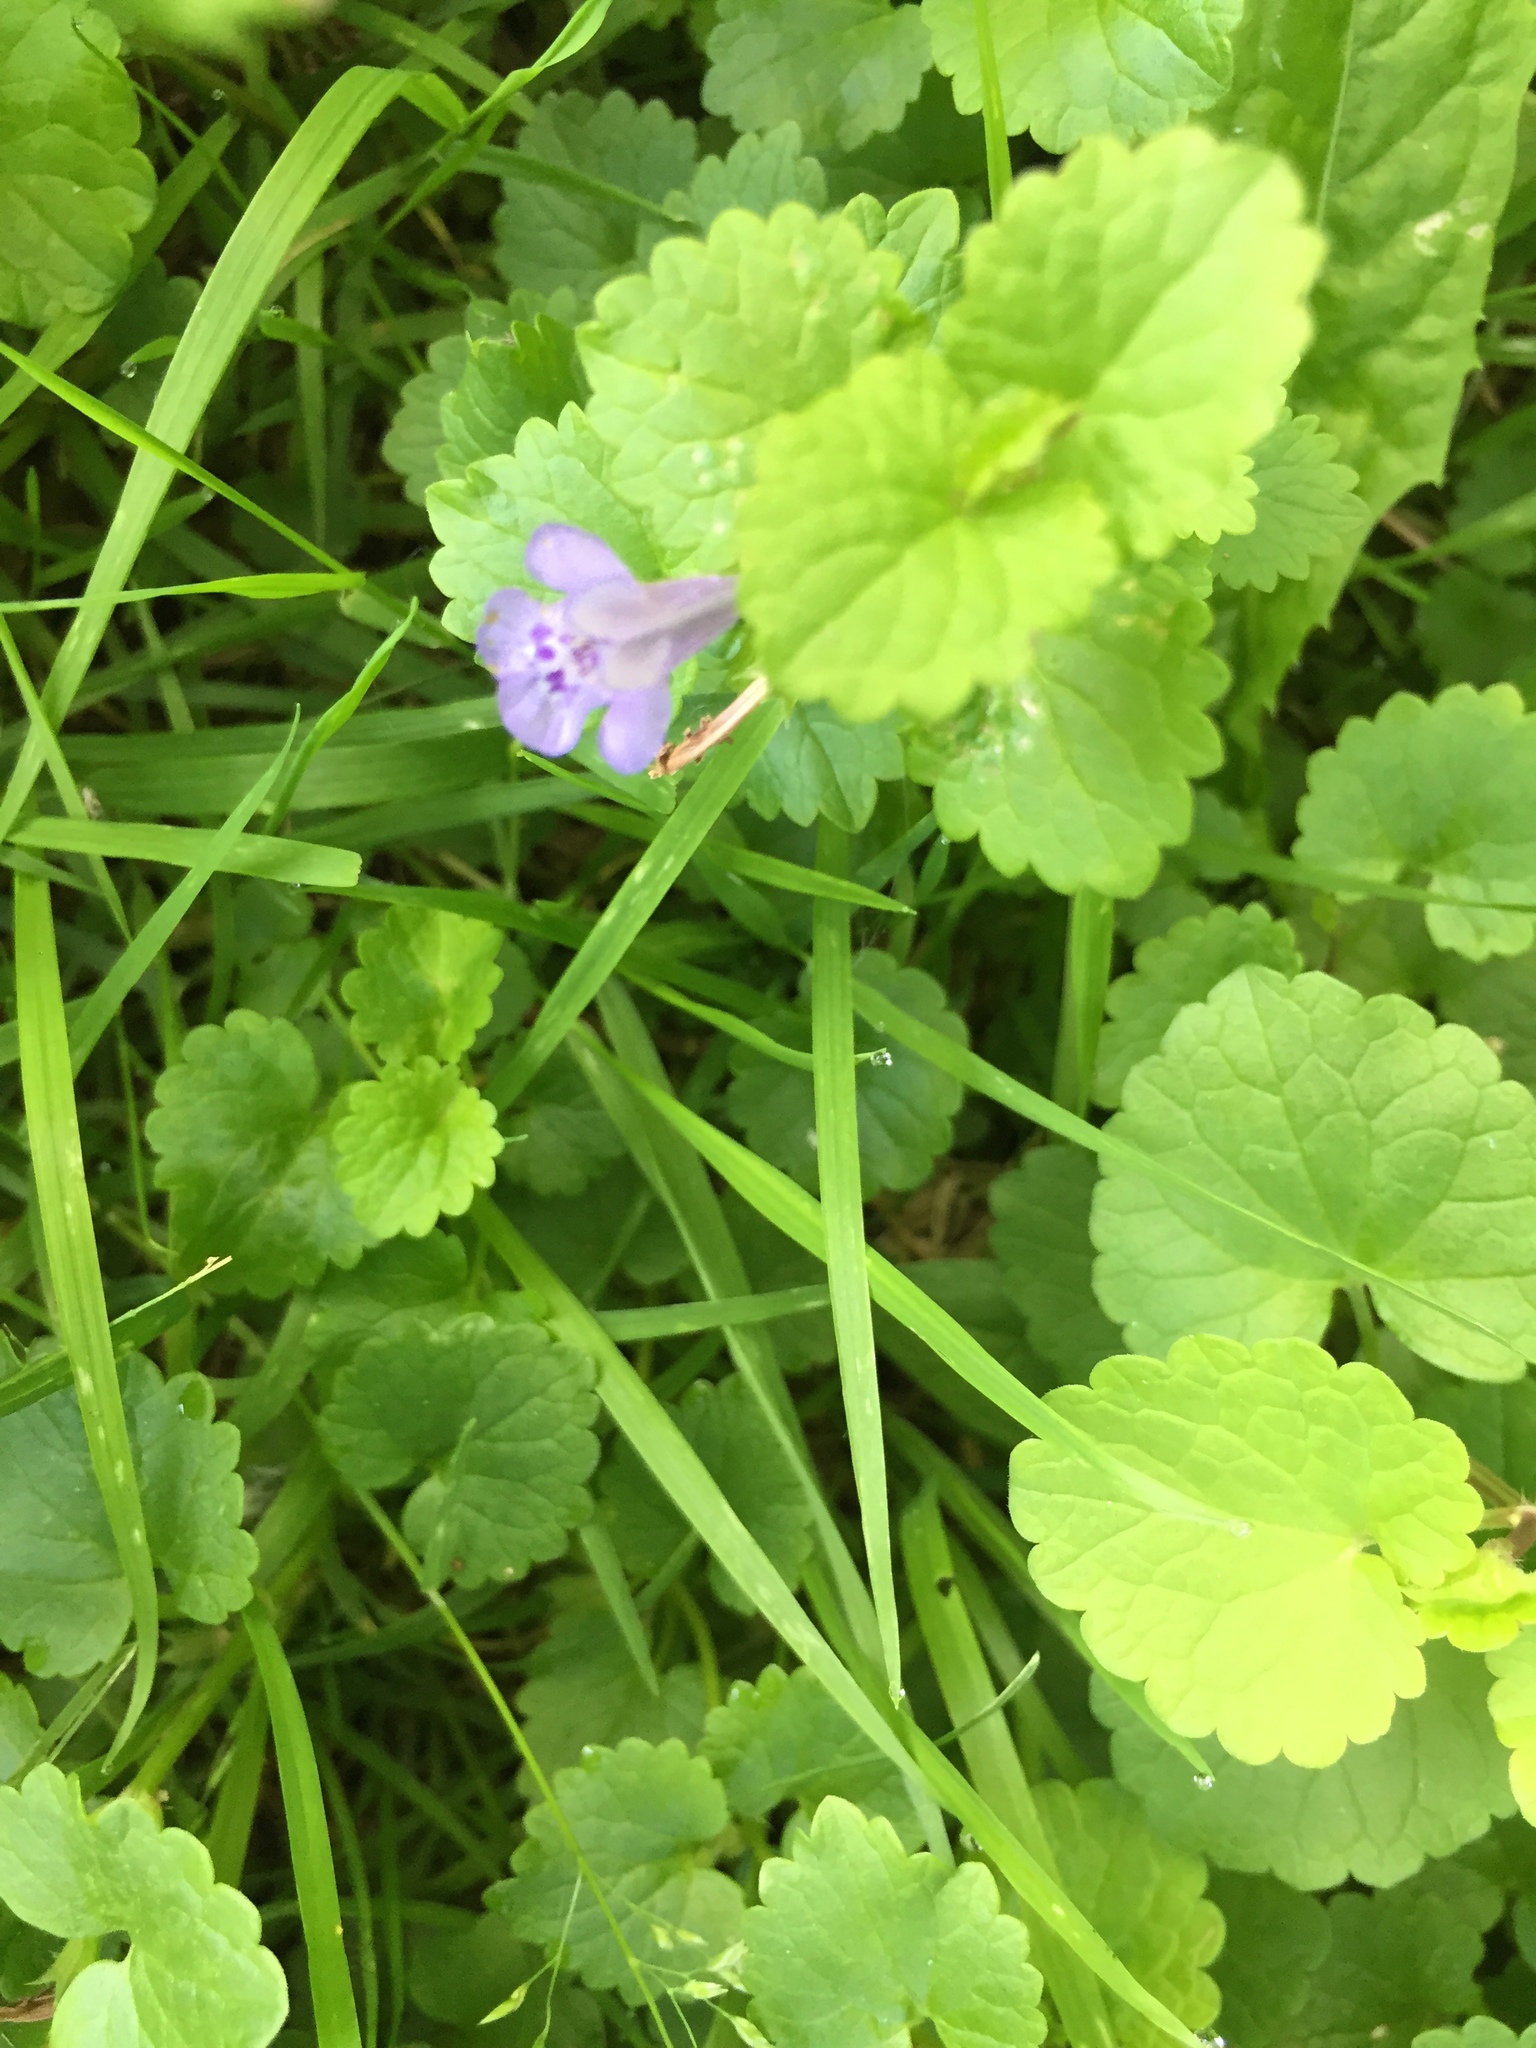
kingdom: Plantae
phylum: Tracheophyta
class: Magnoliopsida
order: Lamiales
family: Lamiaceae
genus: Glechoma
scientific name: Glechoma hederacea
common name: Ground ivy
